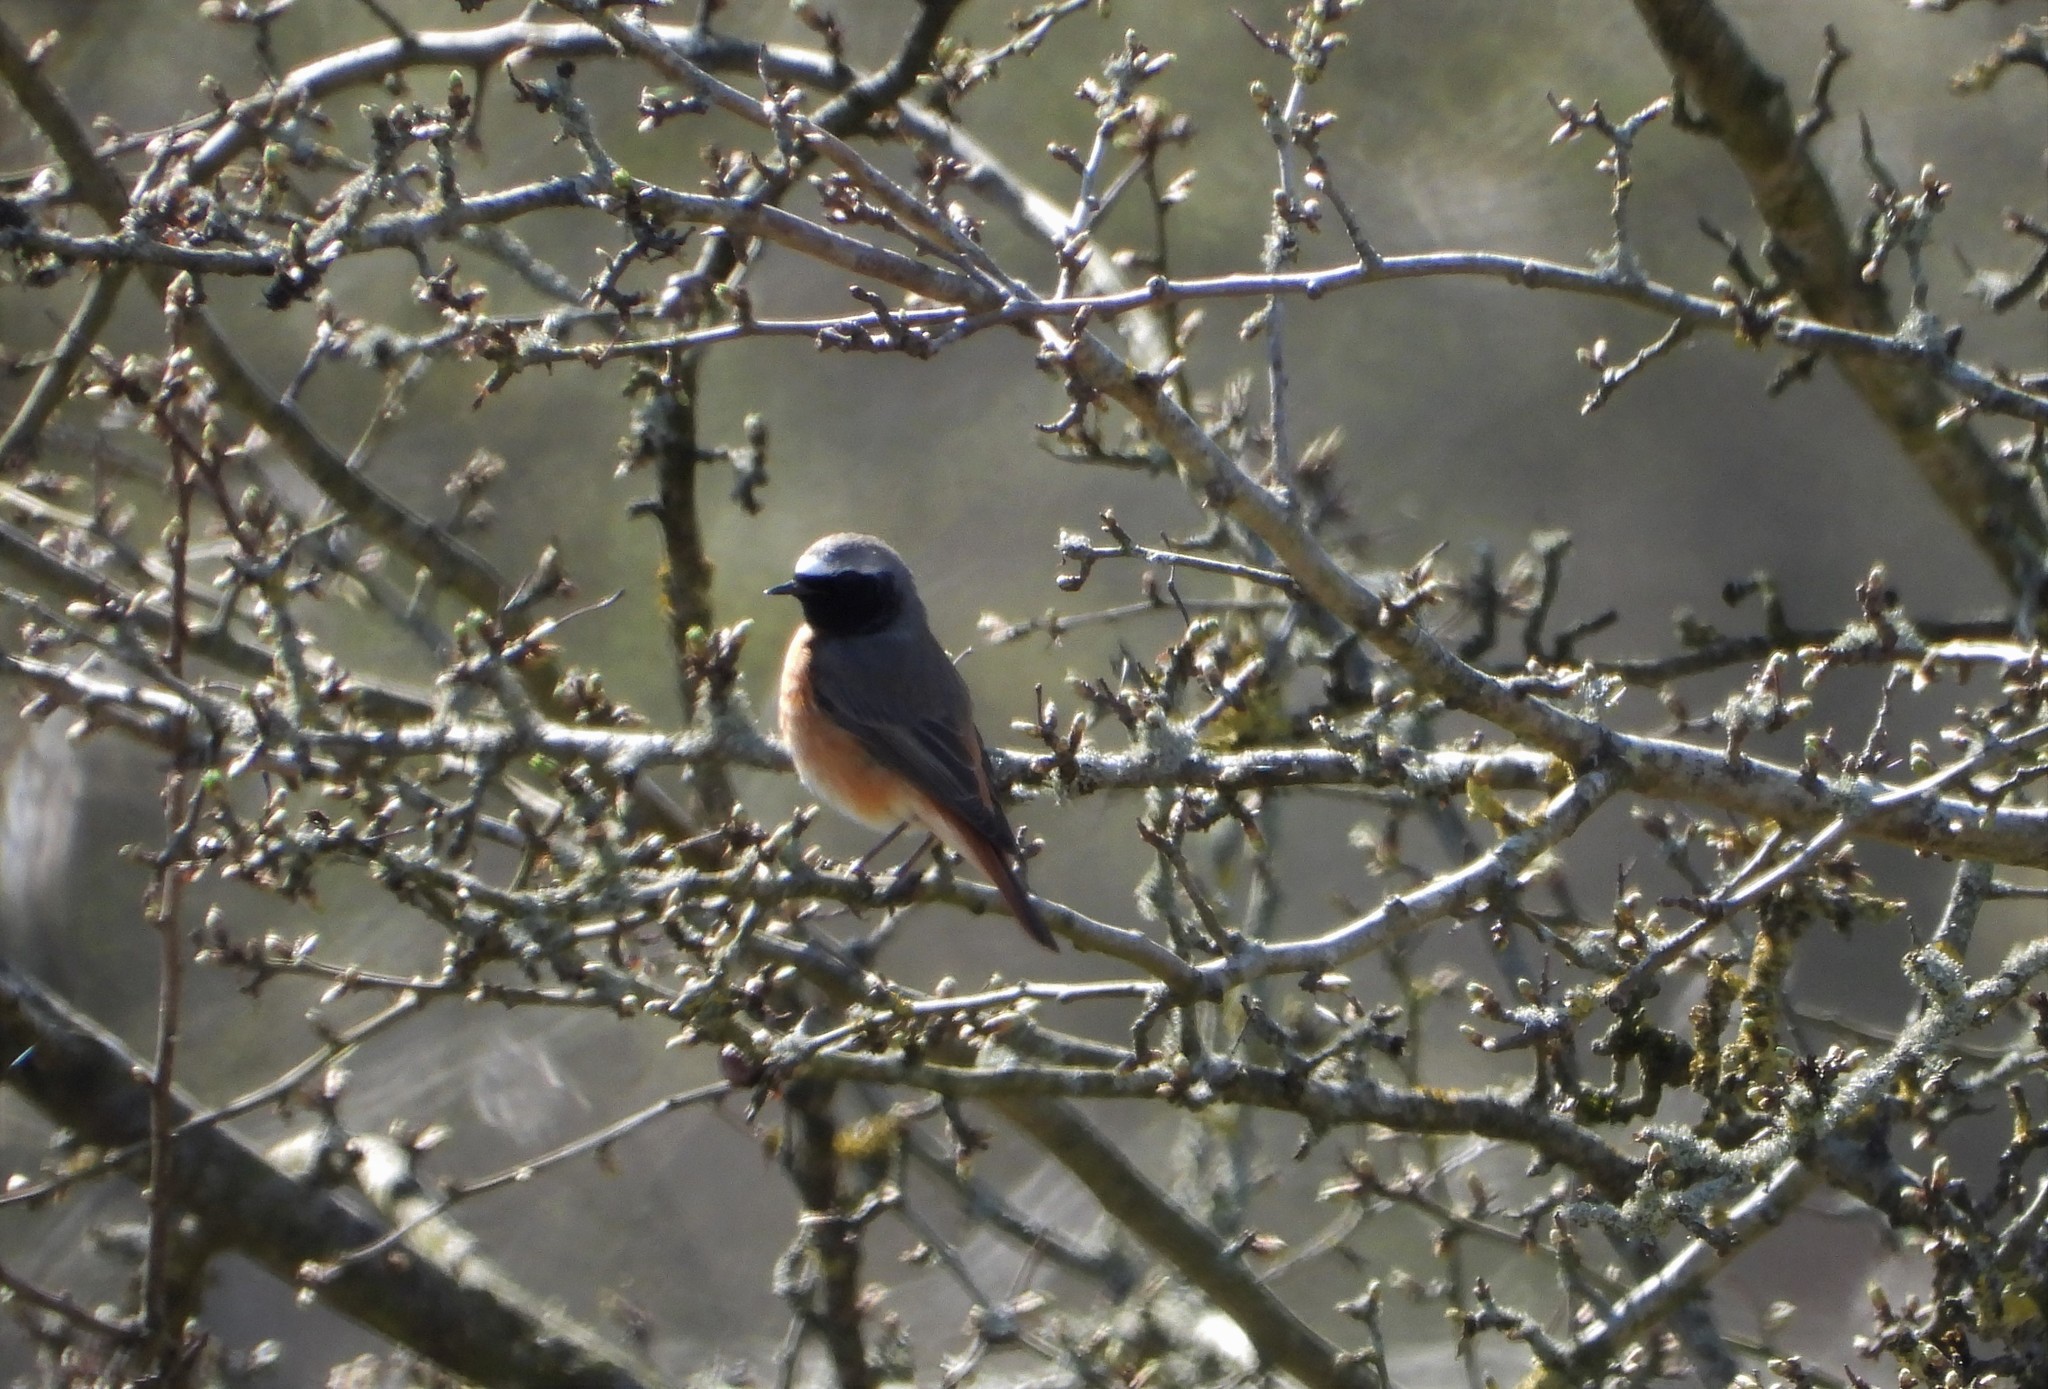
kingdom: Animalia
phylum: Chordata
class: Aves
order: Passeriformes
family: Muscicapidae
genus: Phoenicurus
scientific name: Phoenicurus phoenicurus
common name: Common redstart
